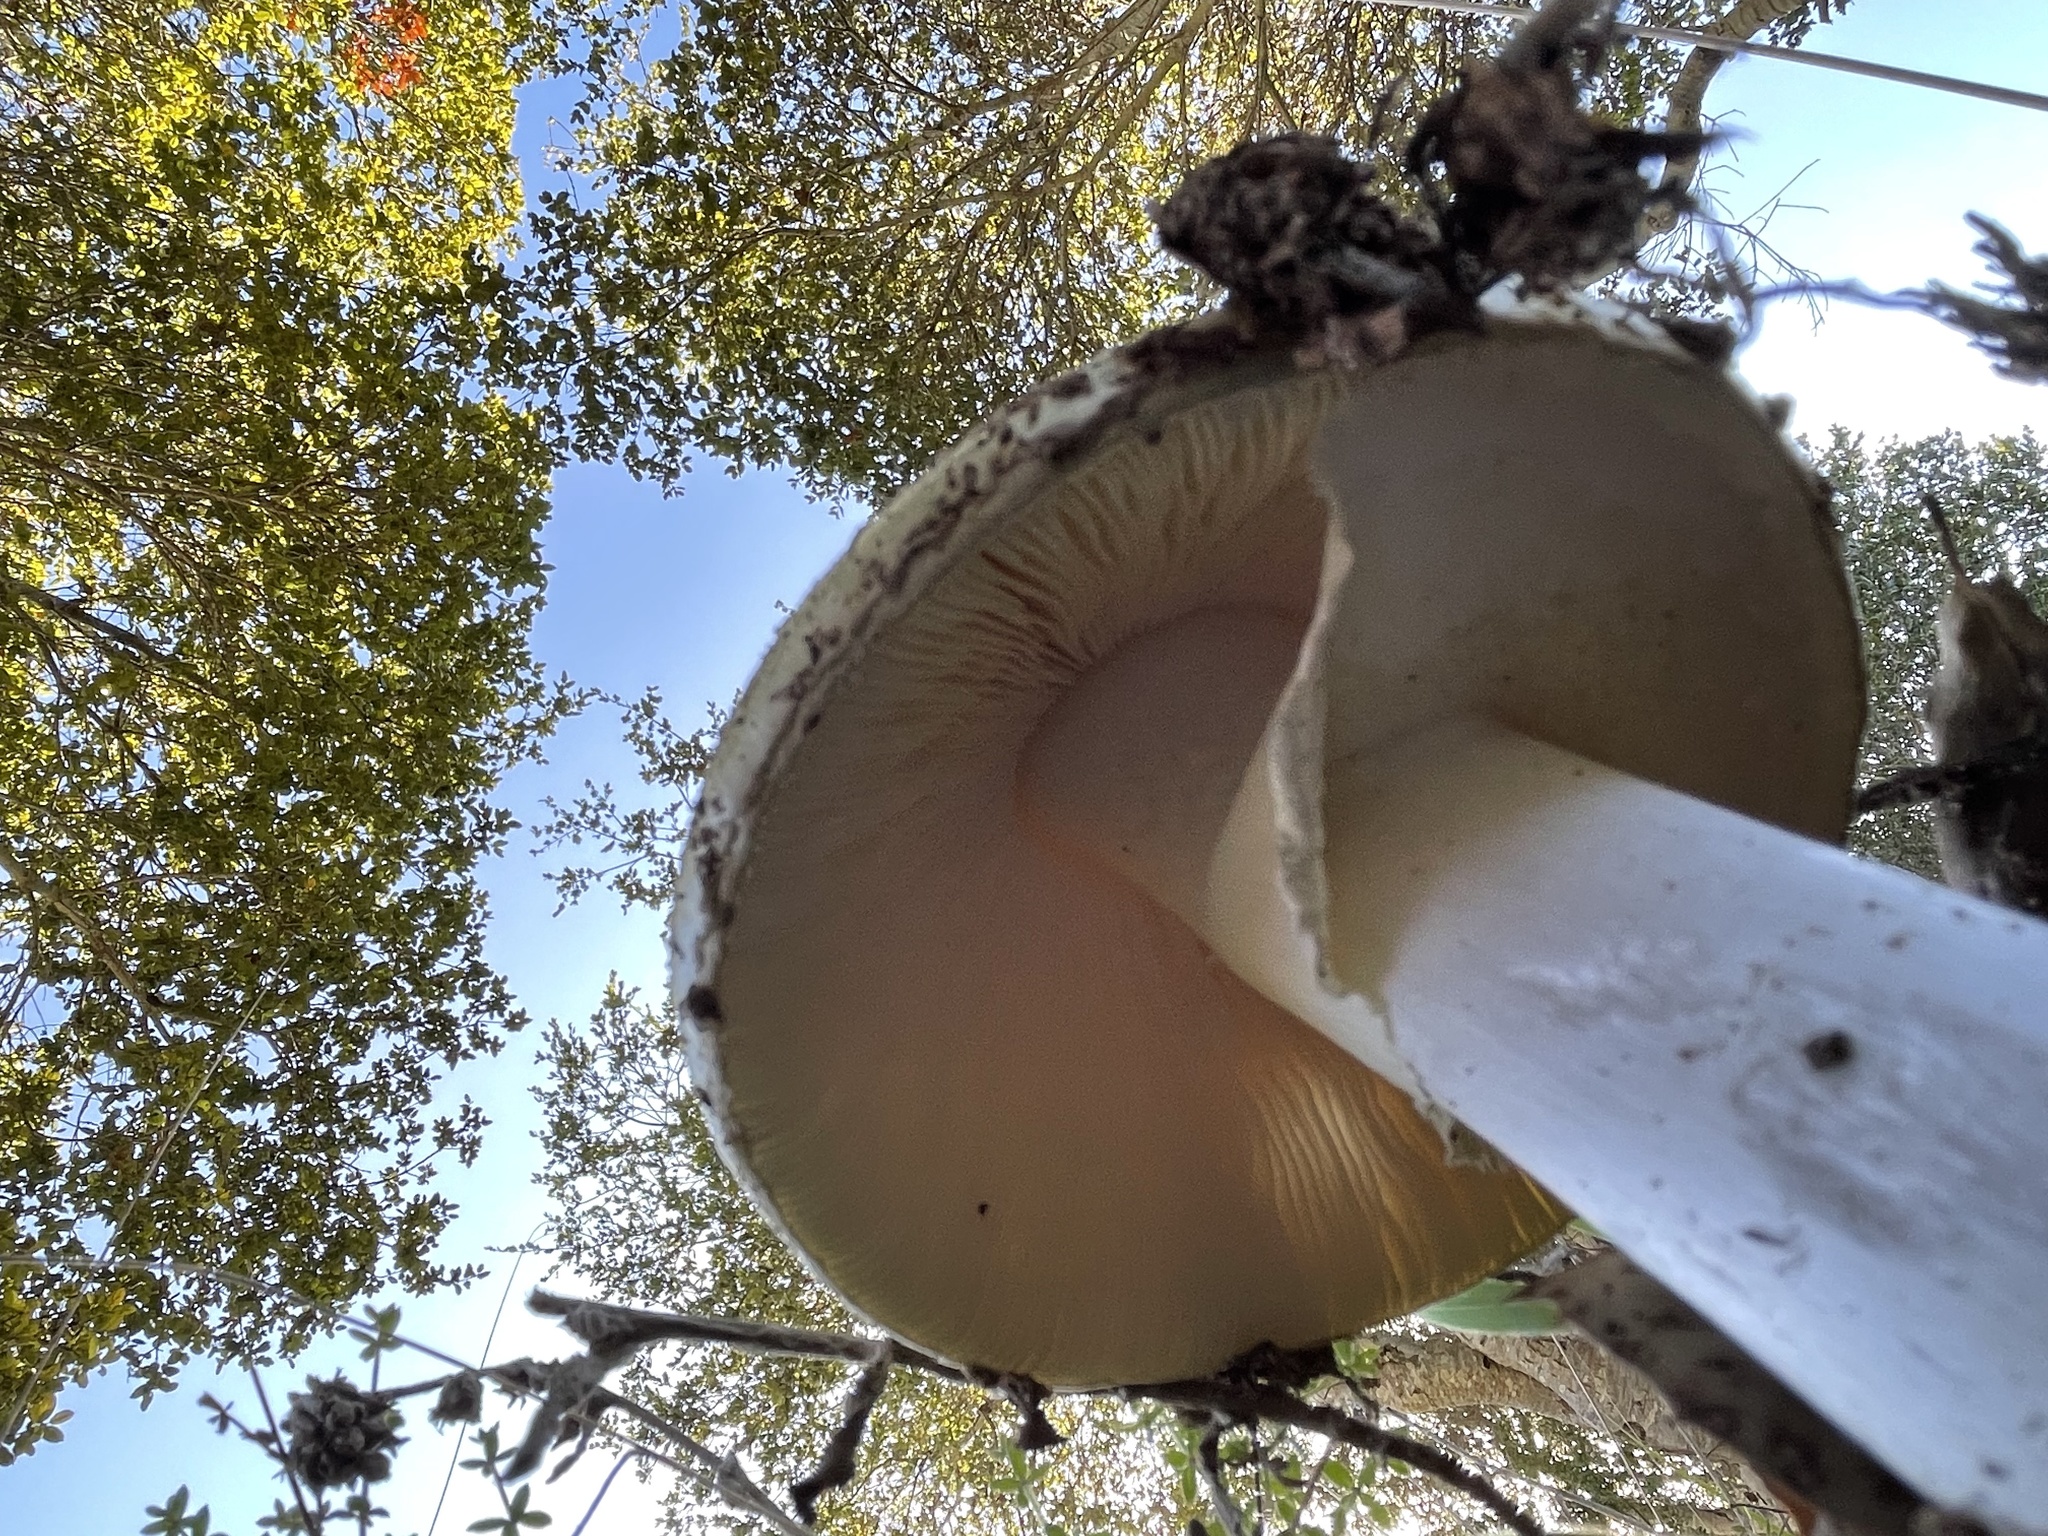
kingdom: Fungi
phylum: Basidiomycota
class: Agaricomycetes
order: Agaricales
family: Amanitaceae
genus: Amanita
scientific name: Amanita phalloides
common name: Death cap
